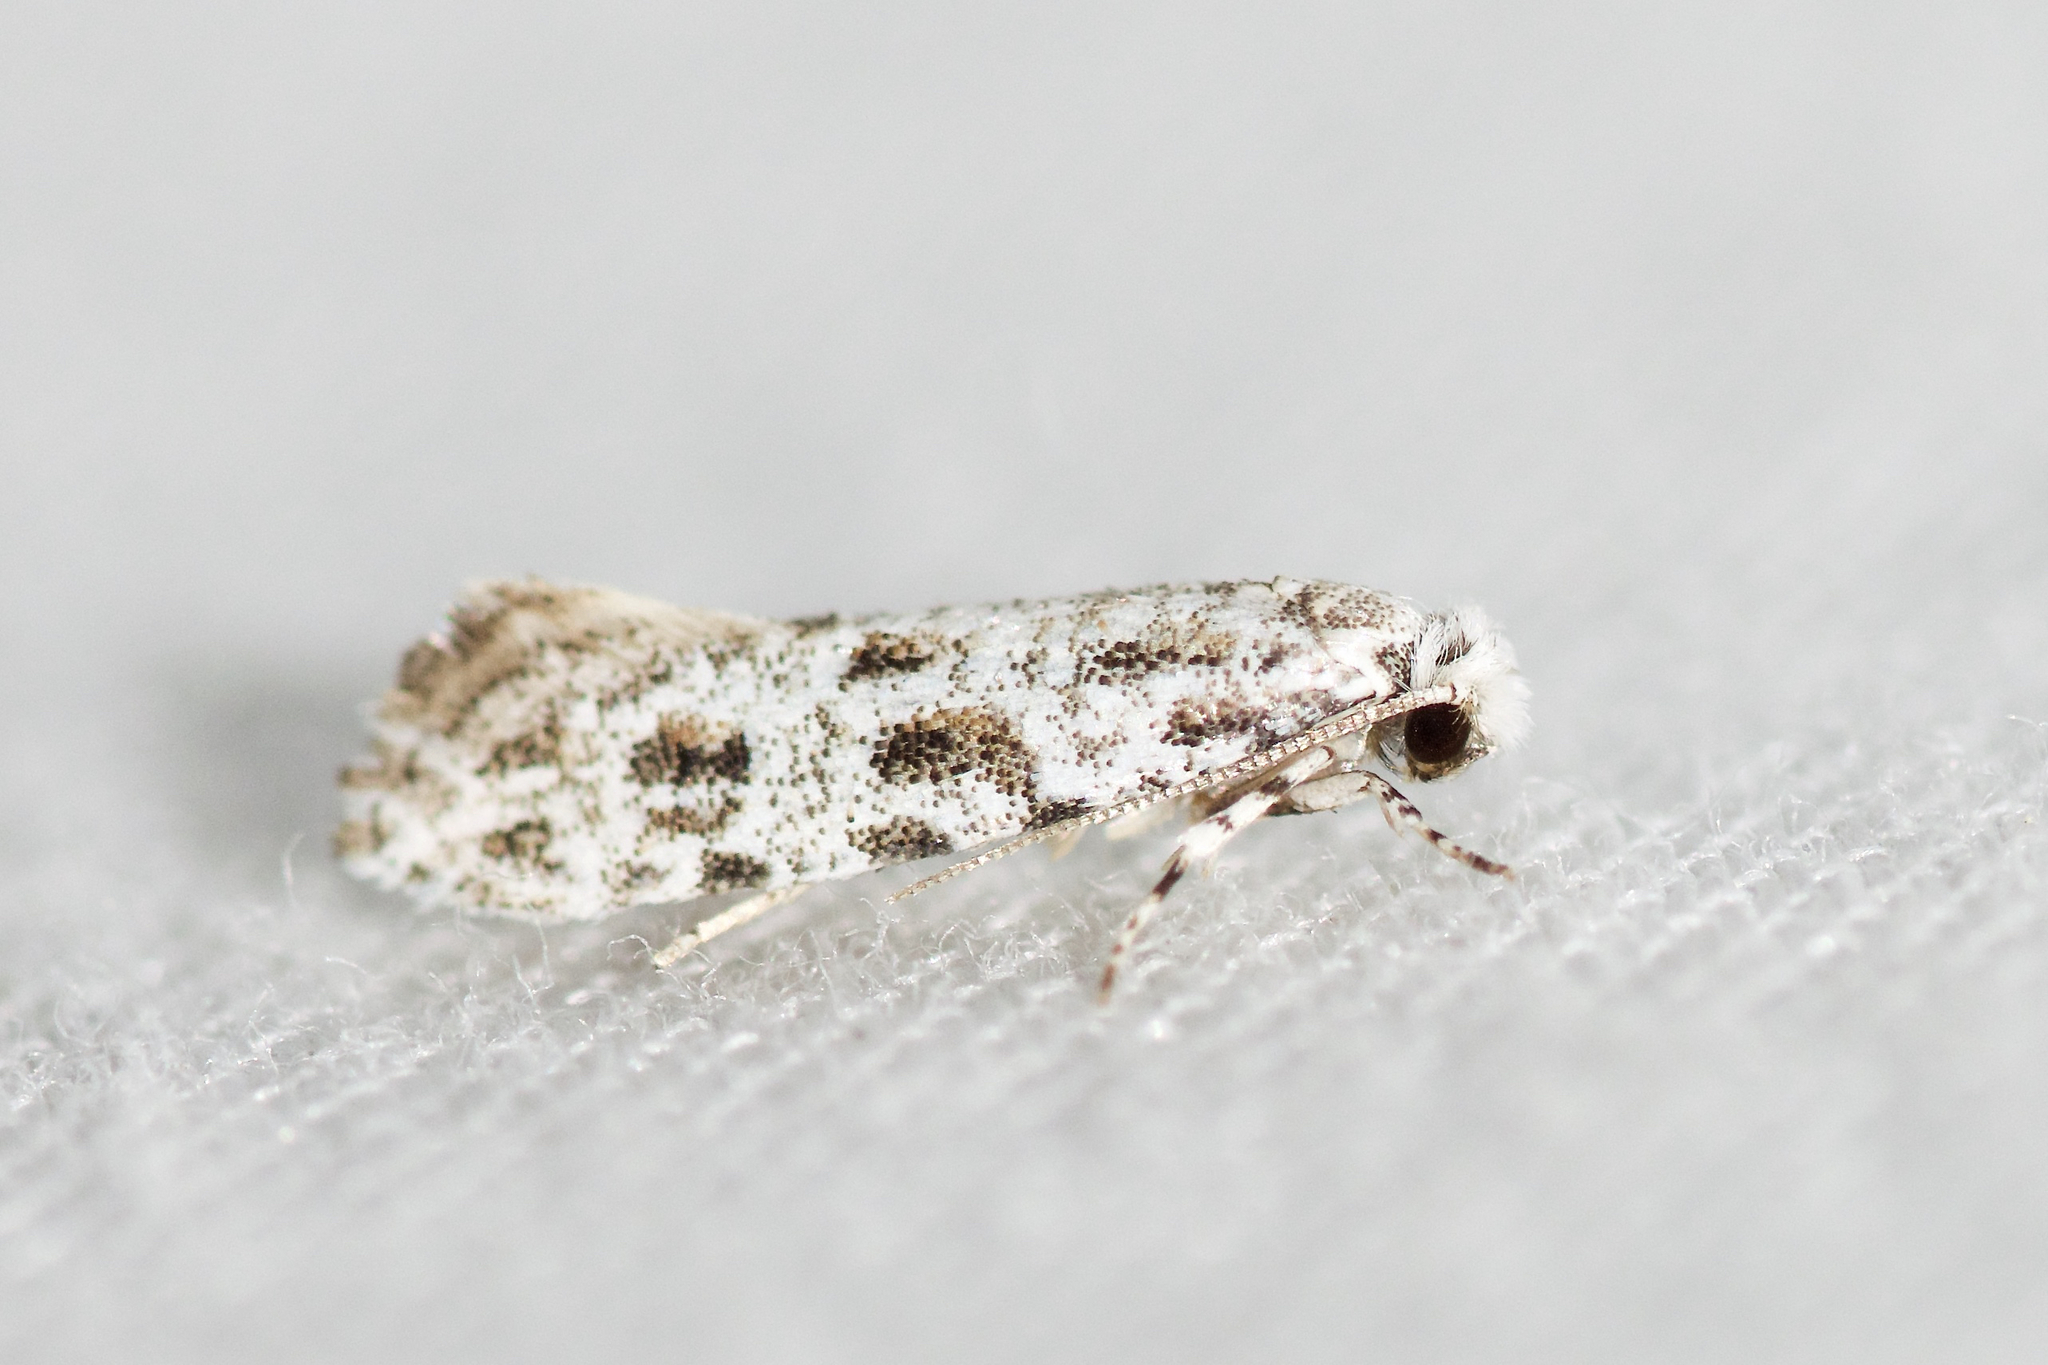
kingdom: Animalia
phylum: Arthropoda
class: Insecta
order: Lepidoptera
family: Meessiidae
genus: Diachorisia
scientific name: Diachorisia velatella
